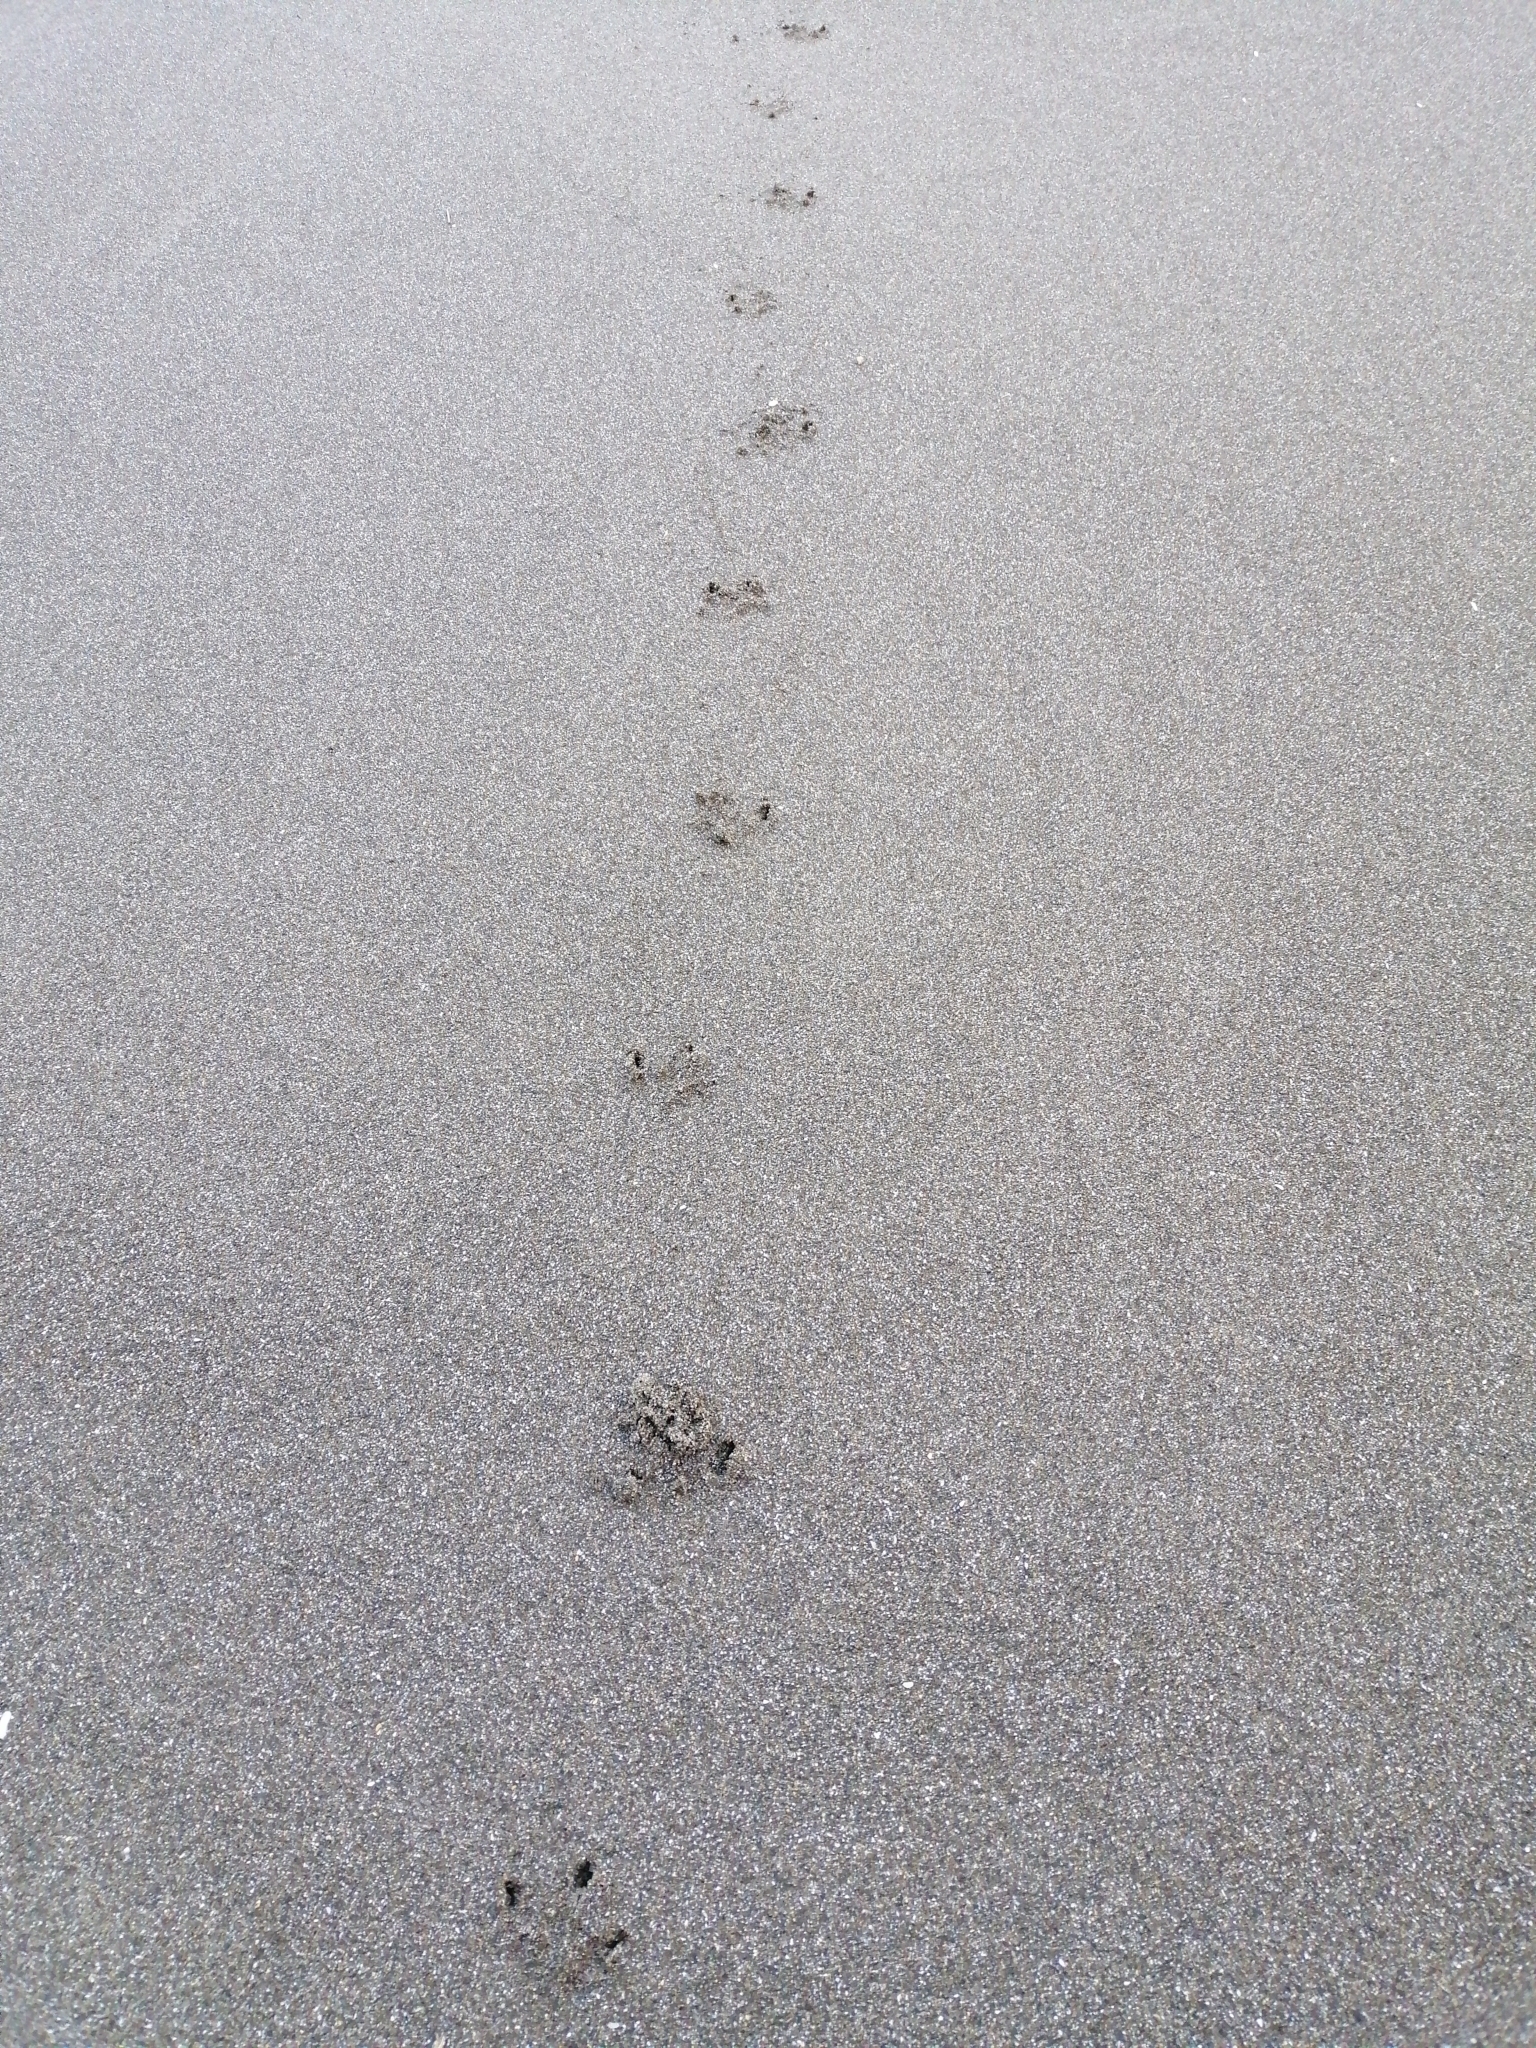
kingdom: Animalia
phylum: Chordata
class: Aves
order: Sphenisciformes
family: Spheniscidae
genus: Eudyptula
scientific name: Eudyptula minor
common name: Little penguin
